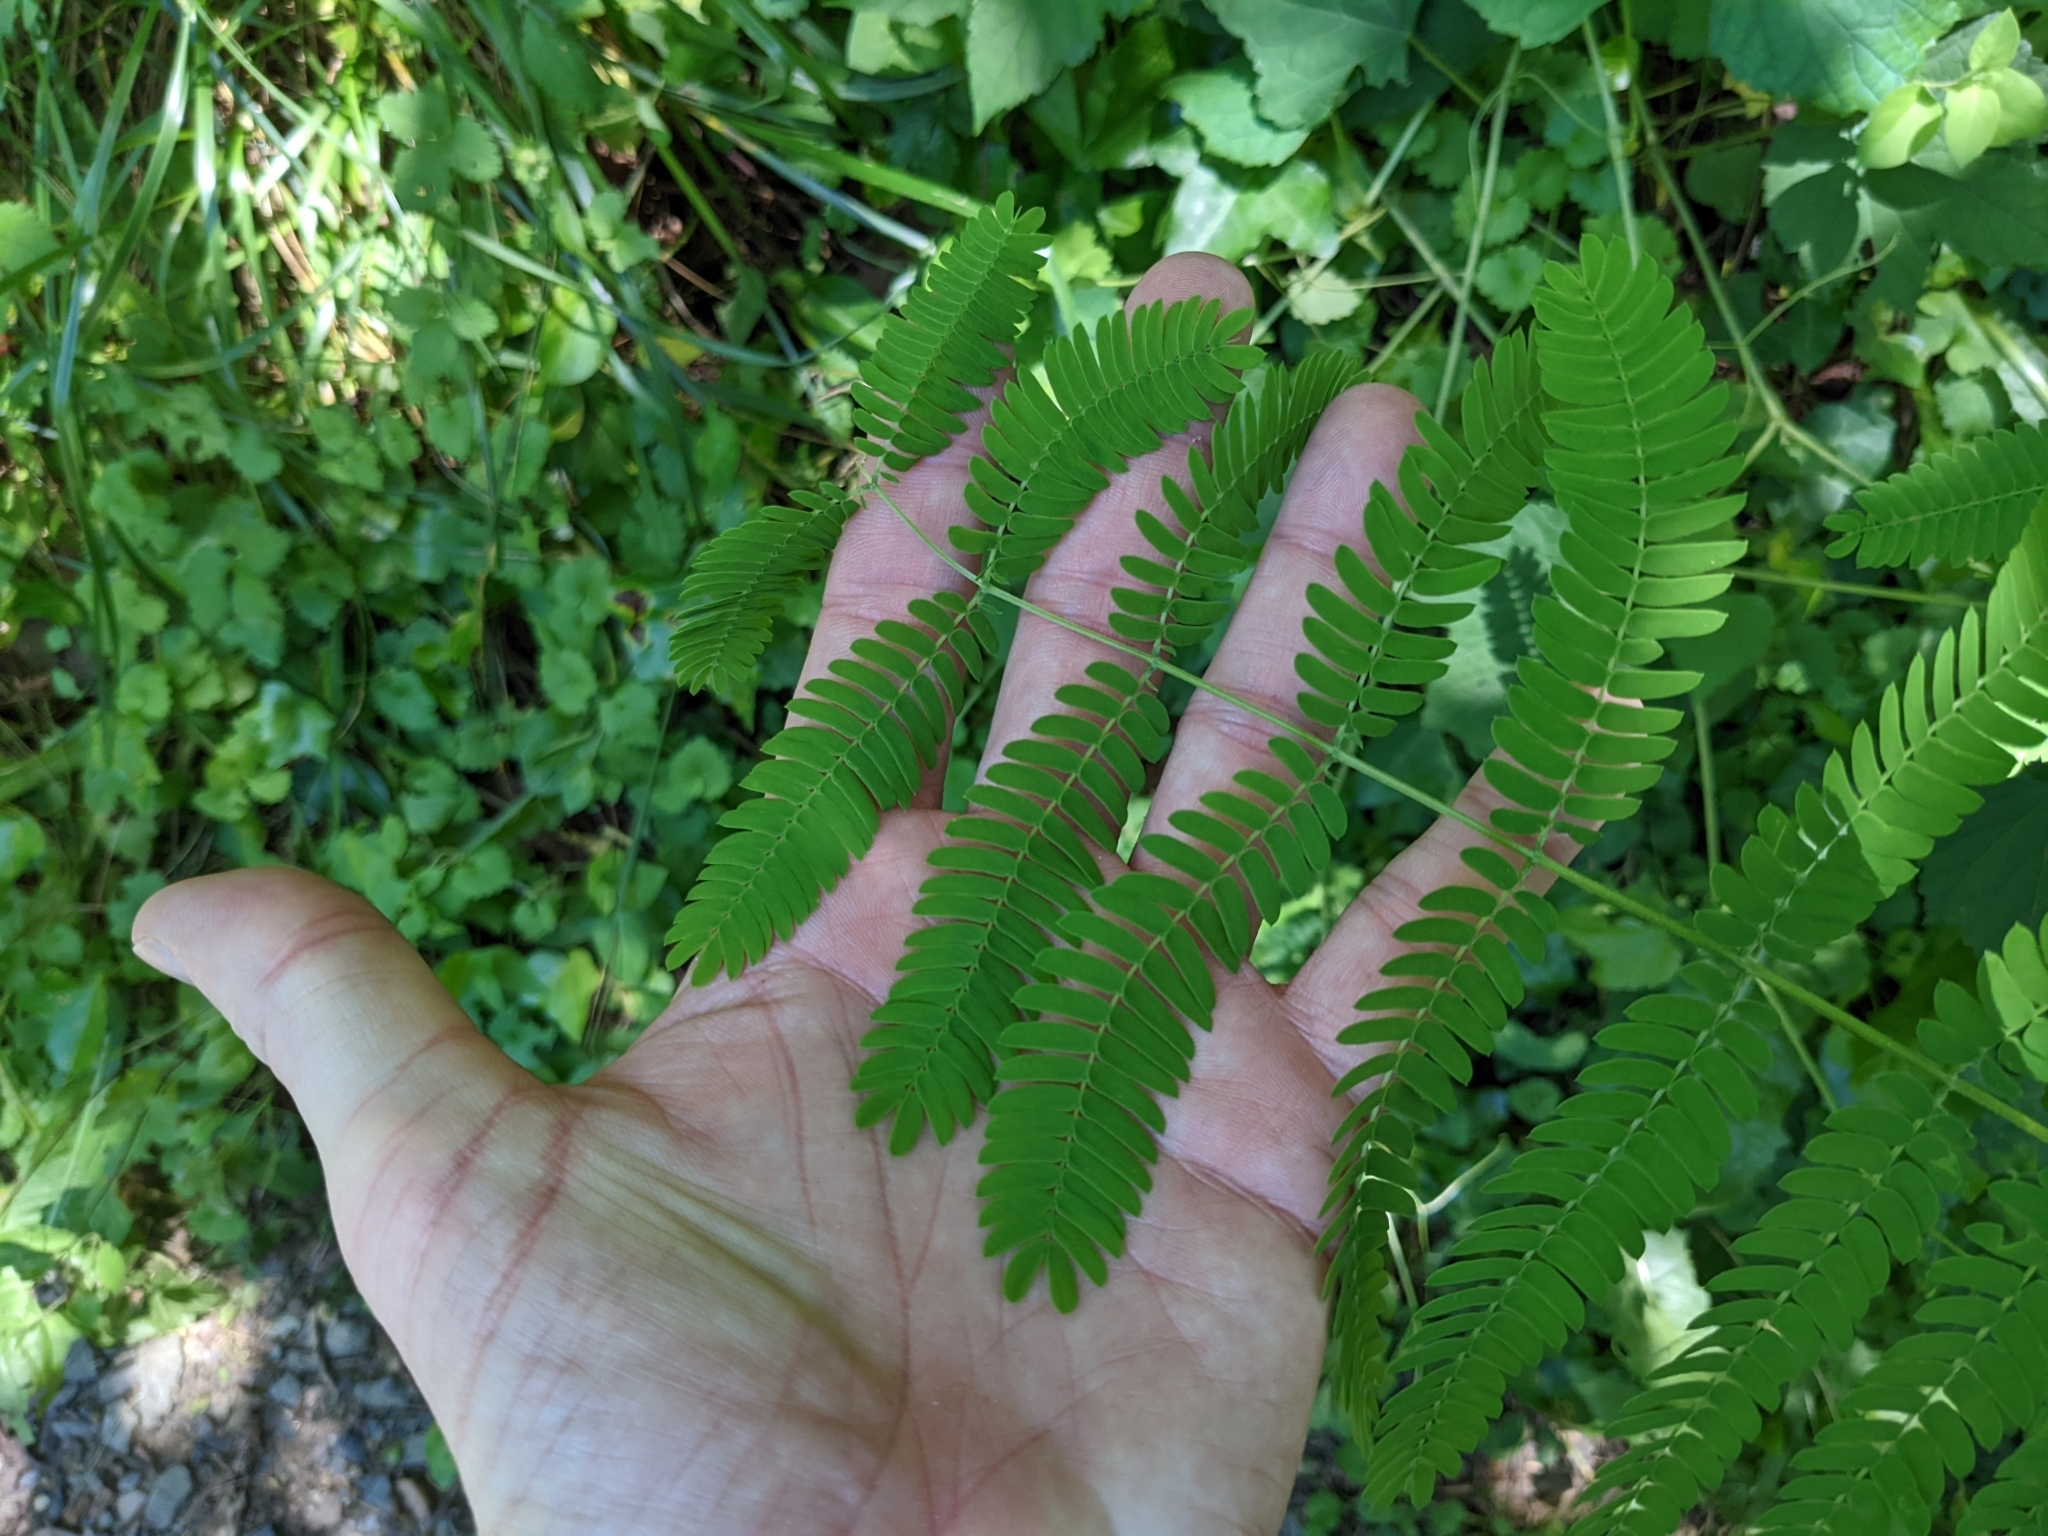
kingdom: Plantae
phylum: Tracheophyta
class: Magnoliopsida
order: Fabales
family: Fabaceae
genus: Albizia
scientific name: Albizia julibrissin
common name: Silktree
